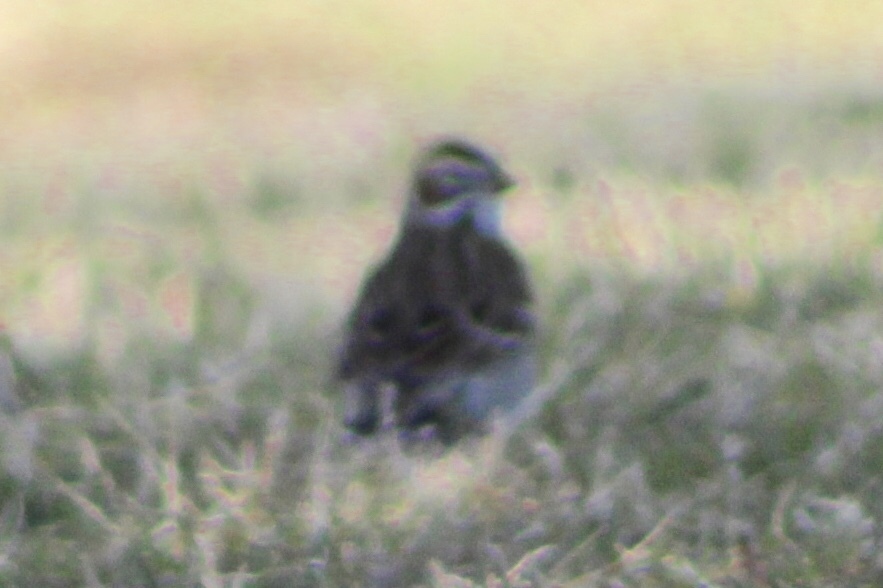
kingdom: Animalia
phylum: Chordata
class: Aves
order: Passeriformes
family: Passerellidae
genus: Chondestes
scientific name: Chondestes grammacus
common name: Lark sparrow
